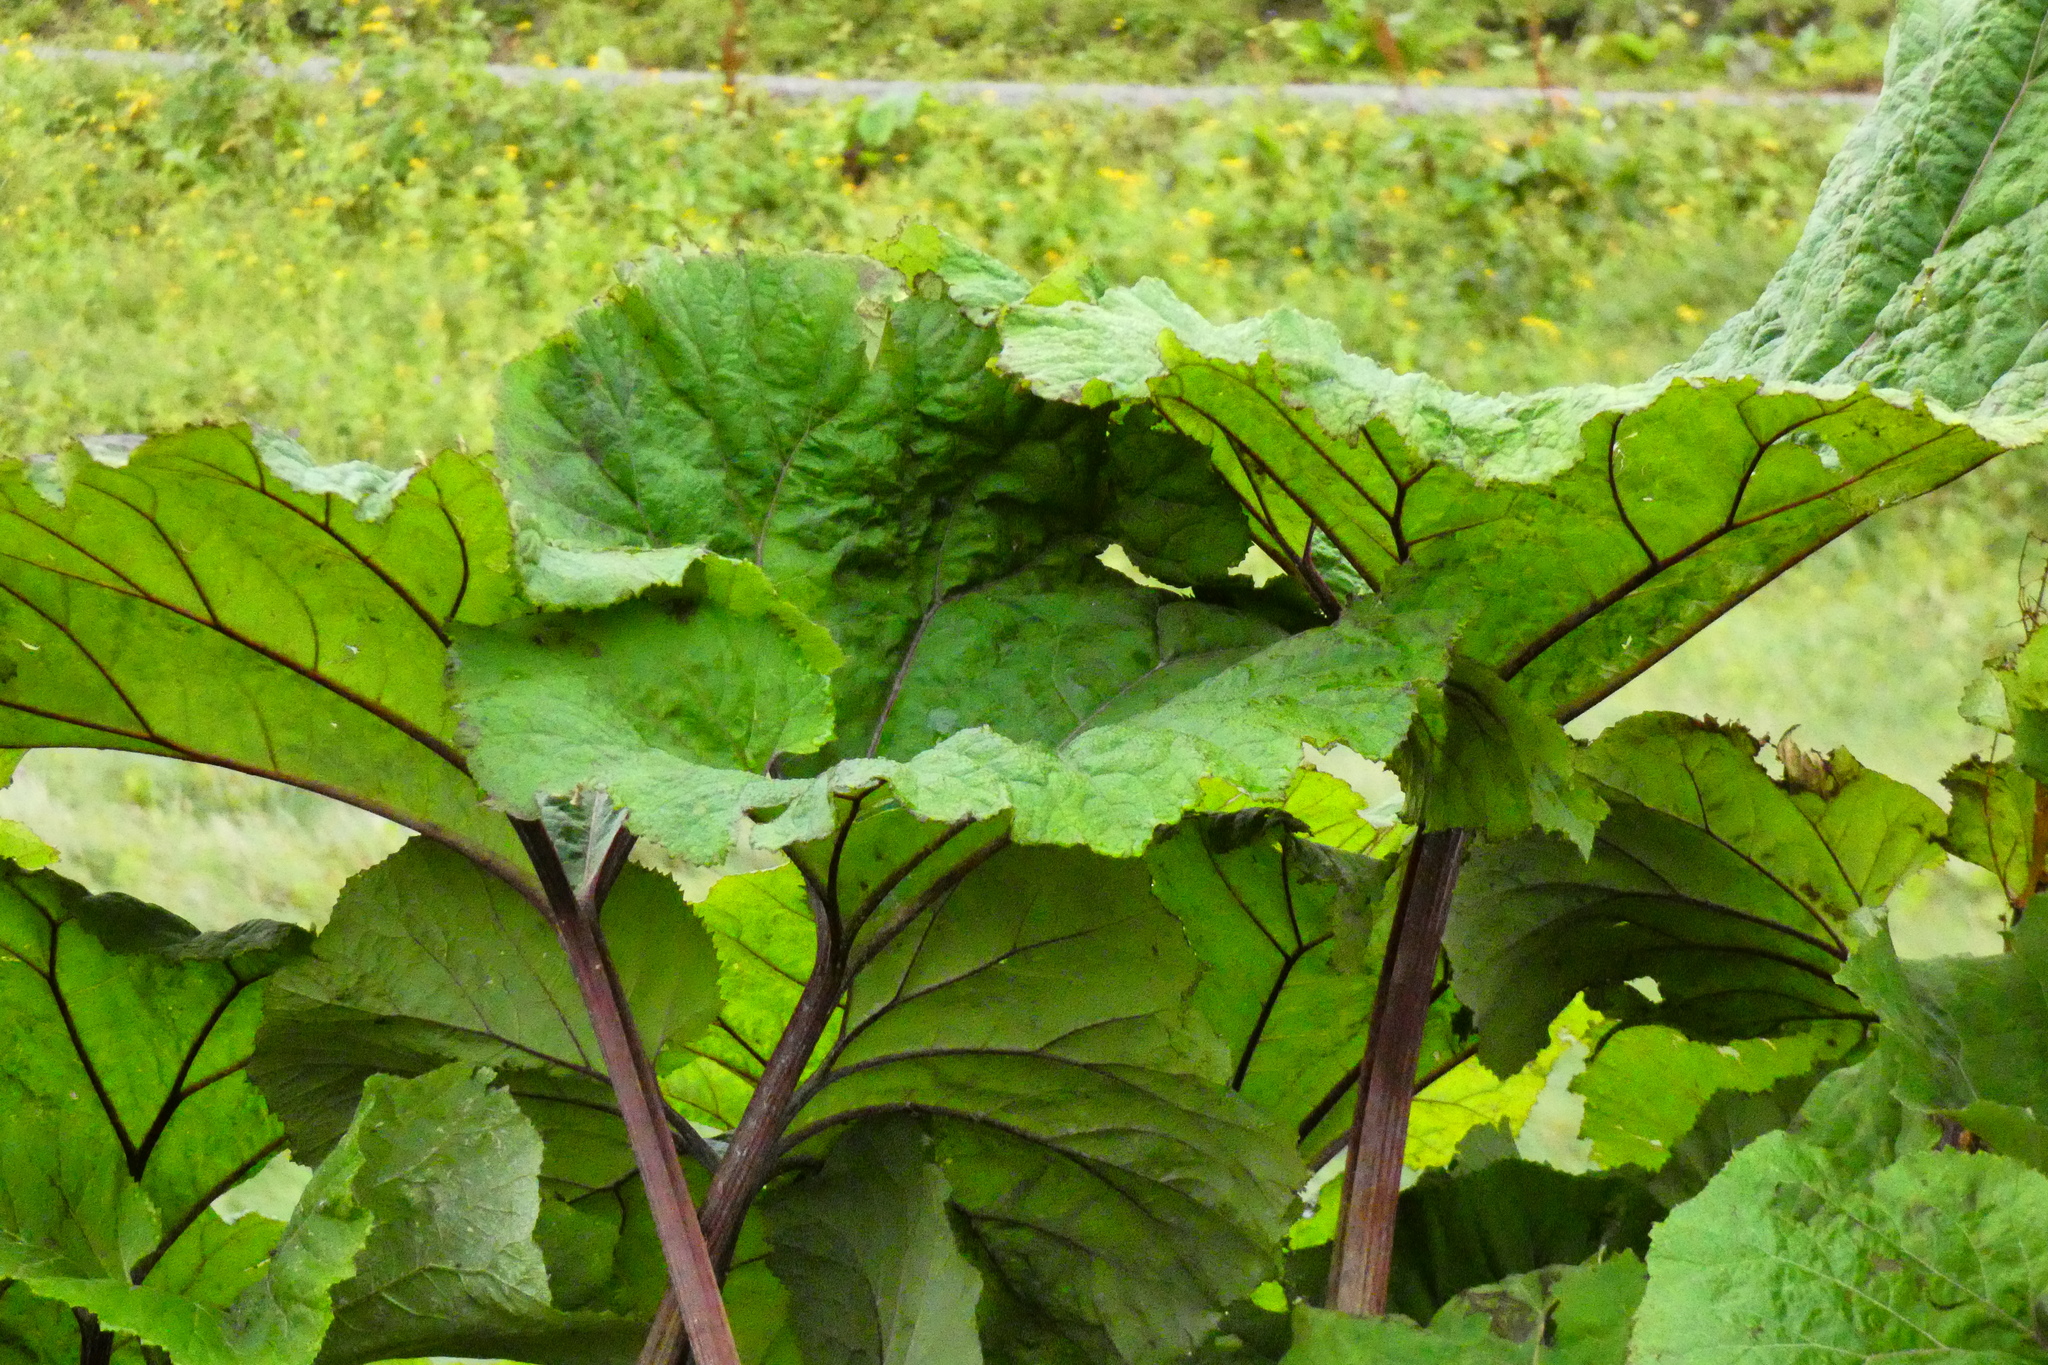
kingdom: Plantae
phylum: Tracheophyta
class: Magnoliopsida
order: Asterales
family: Asteraceae
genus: Petasites
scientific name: Petasites hybridus
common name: Butterbur
